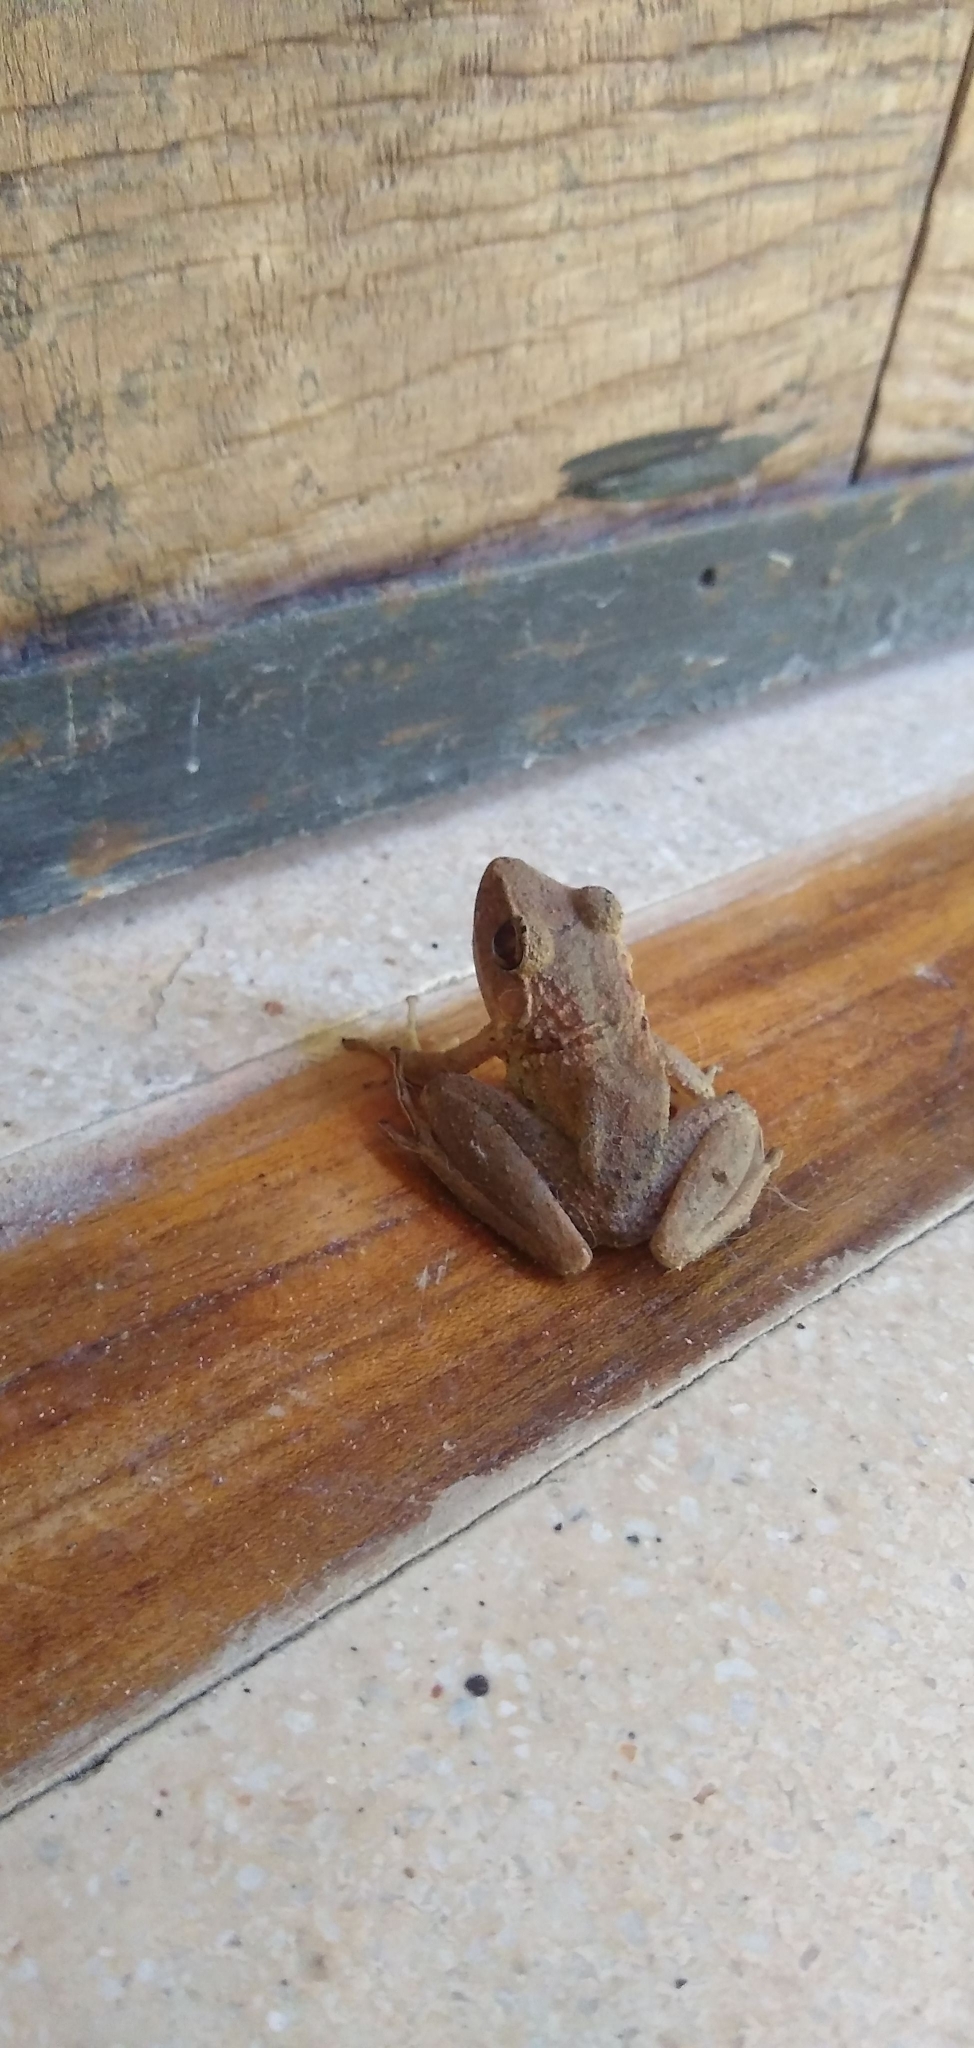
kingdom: Animalia
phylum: Chordata
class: Amphibia
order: Anura
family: Craugastoridae
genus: Craugastor
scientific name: Craugastor fitzingeri
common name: Fitzinger's robber frog
